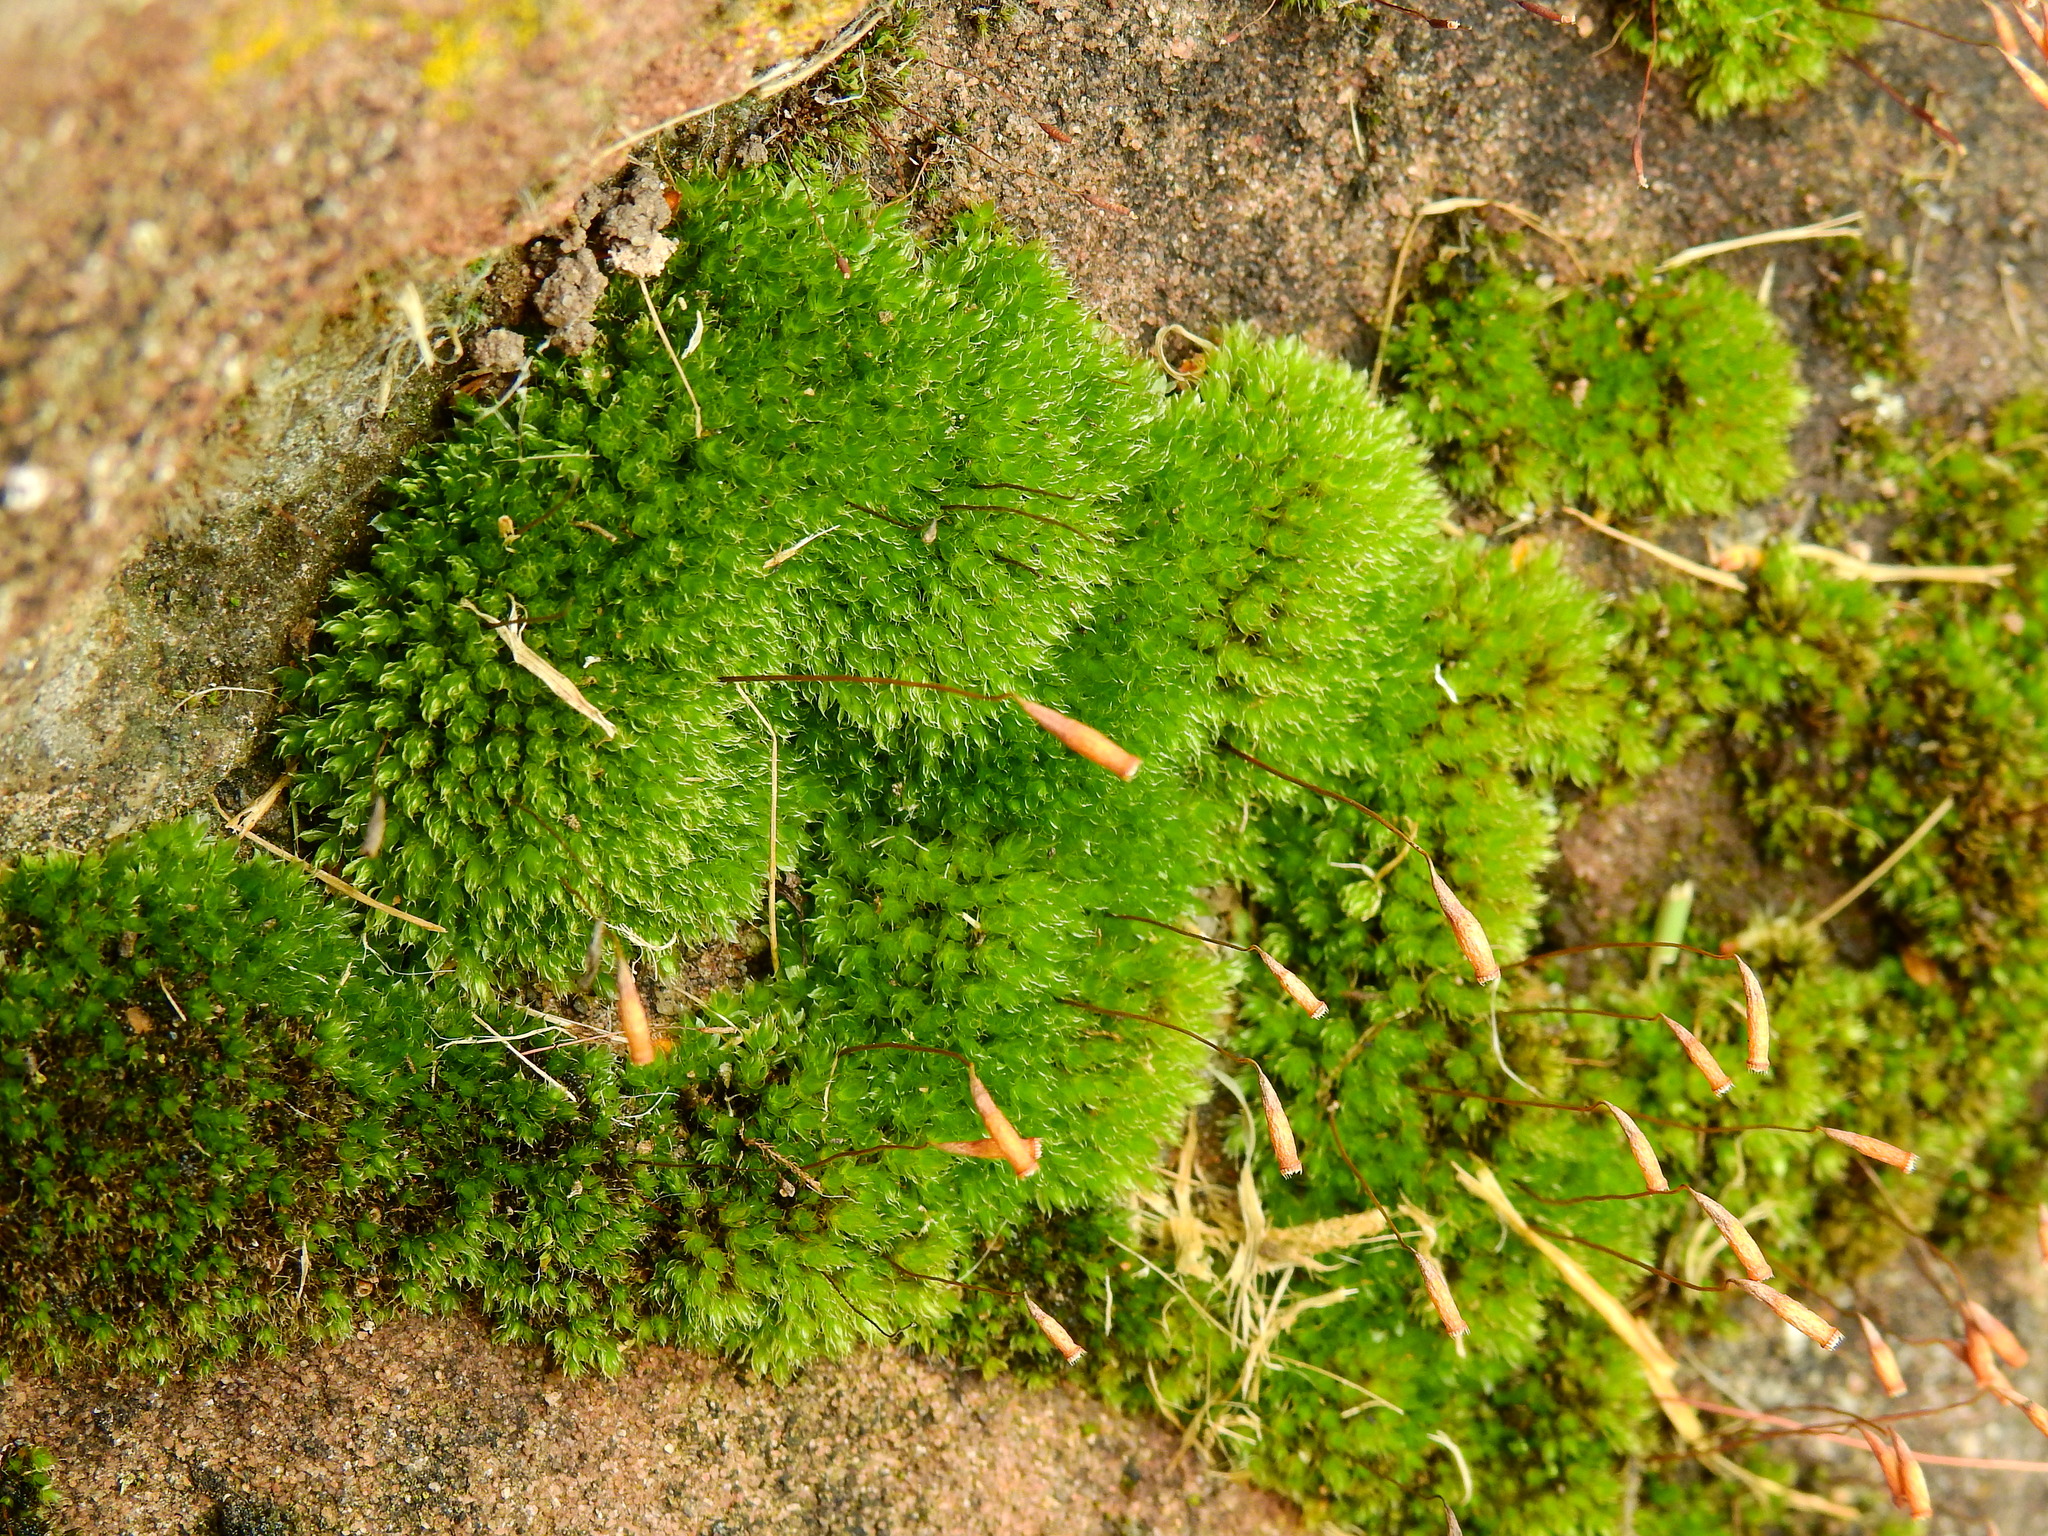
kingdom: Plantae
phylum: Bryophyta
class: Bryopsida
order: Bryales
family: Bryaceae
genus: Rosulabryum
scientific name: Rosulabryum capillare
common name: Capillary thread-moss
